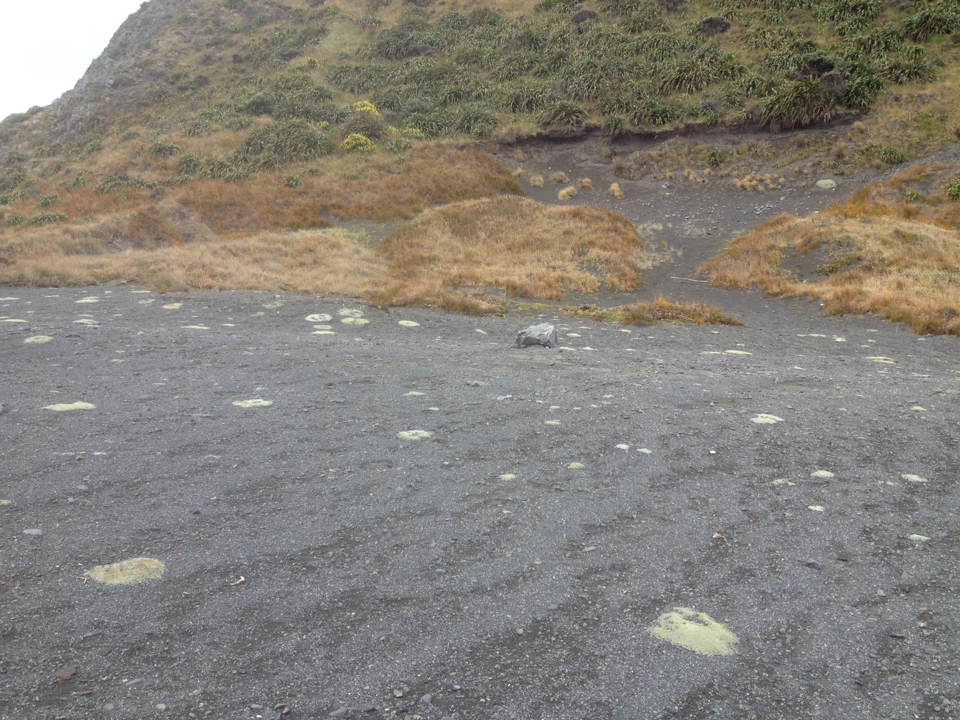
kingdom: Plantae
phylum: Tracheophyta
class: Liliopsida
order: Poales
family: Cyperaceae
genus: Ficinia
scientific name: Ficinia spiralis
